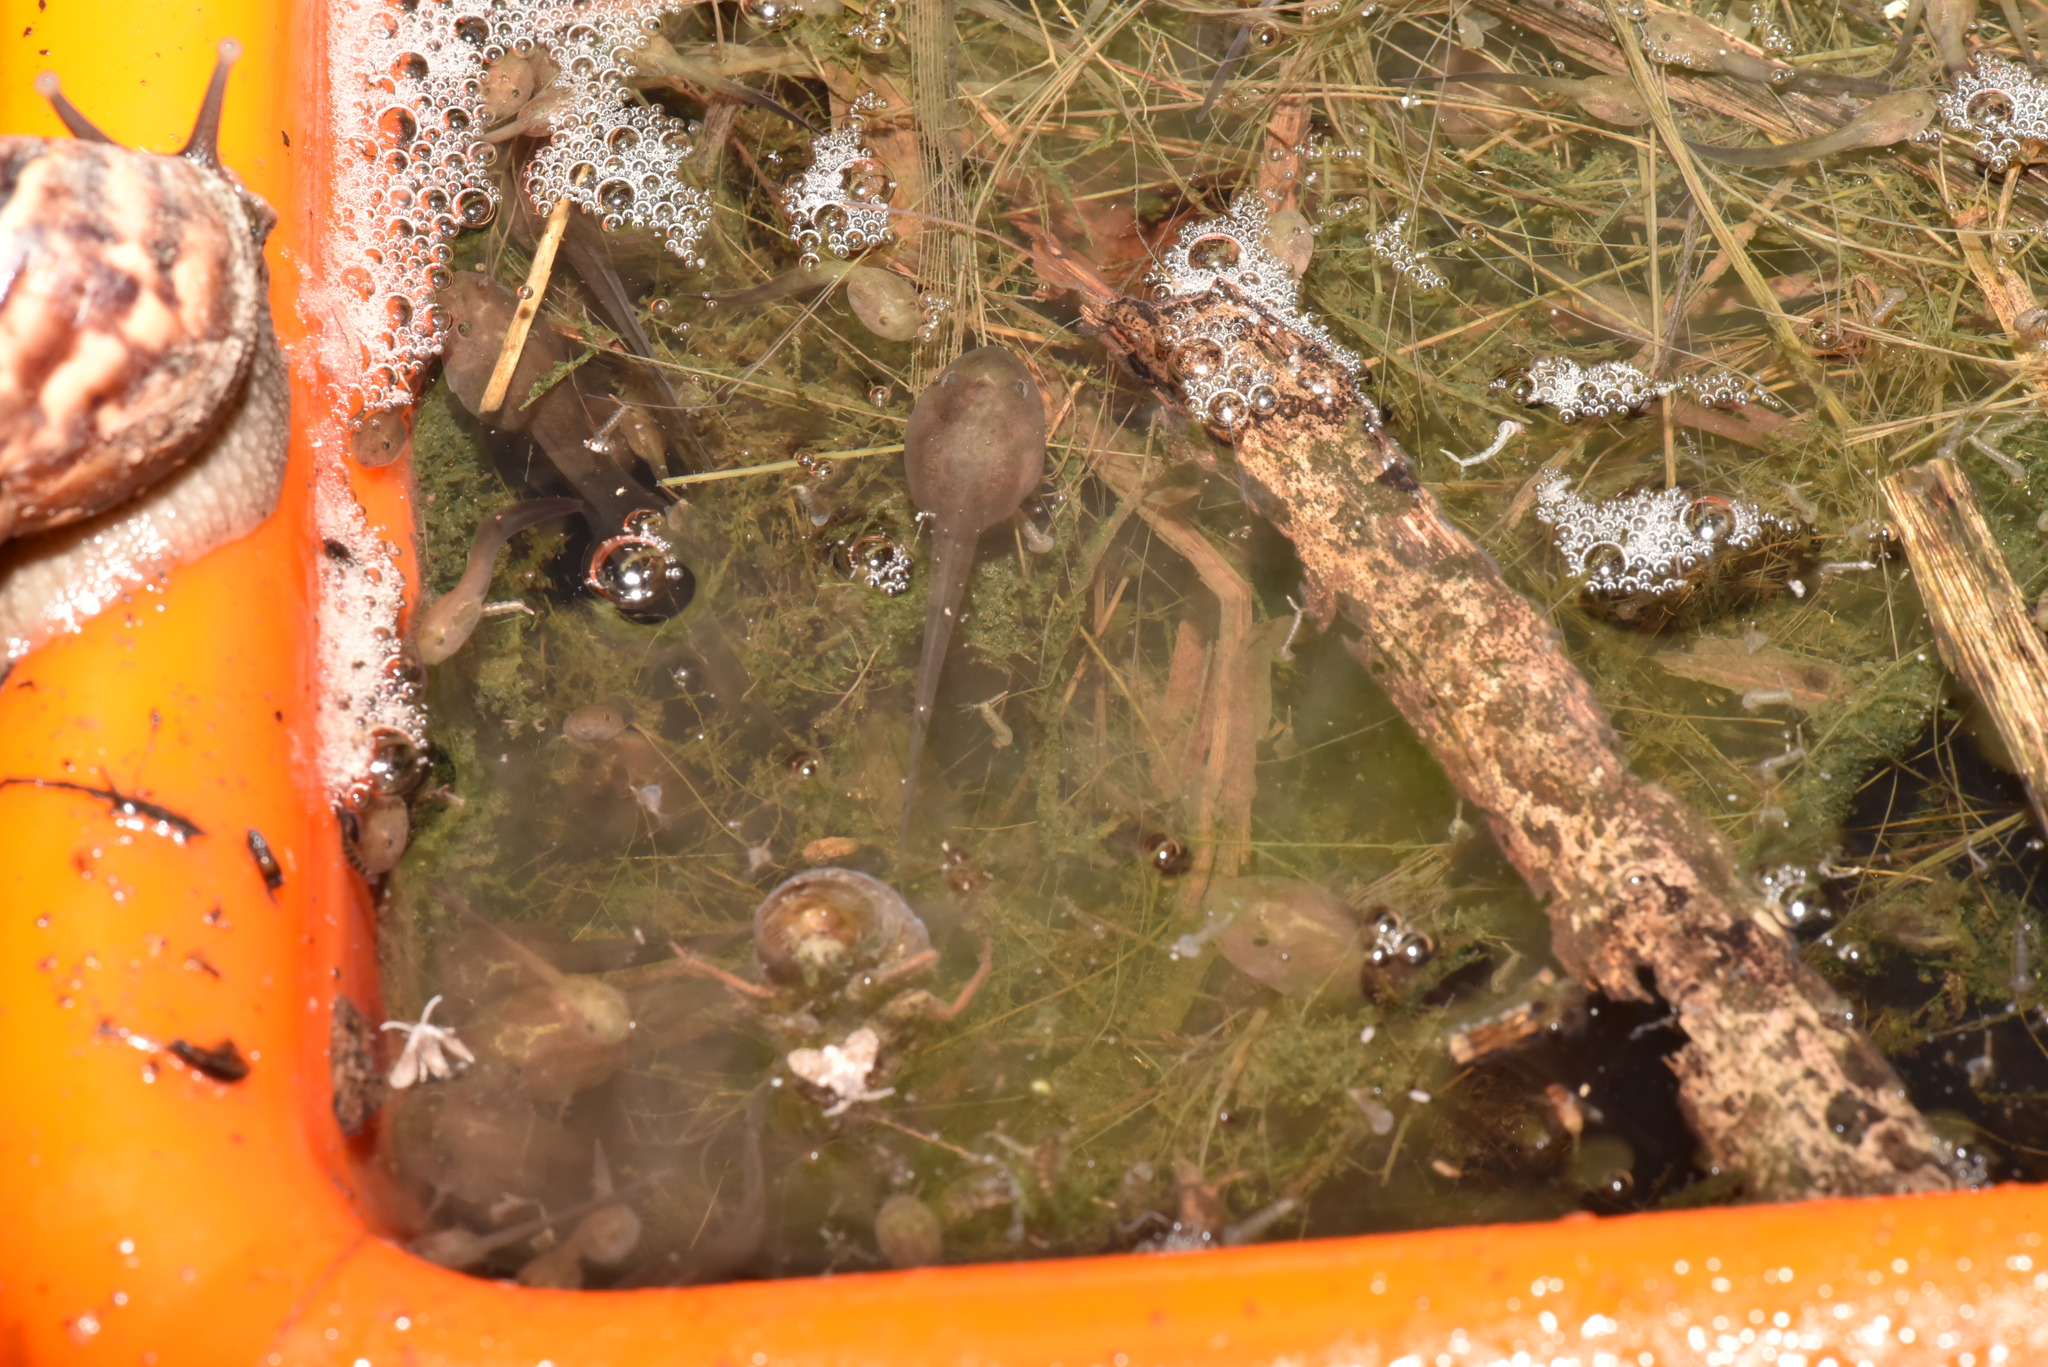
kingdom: Animalia
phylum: Chordata
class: Amphibia
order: Anura
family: Rhacophoridae
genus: Zhangixalus
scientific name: Zhangixalus moltrechti
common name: Moltrecht's treefrog
